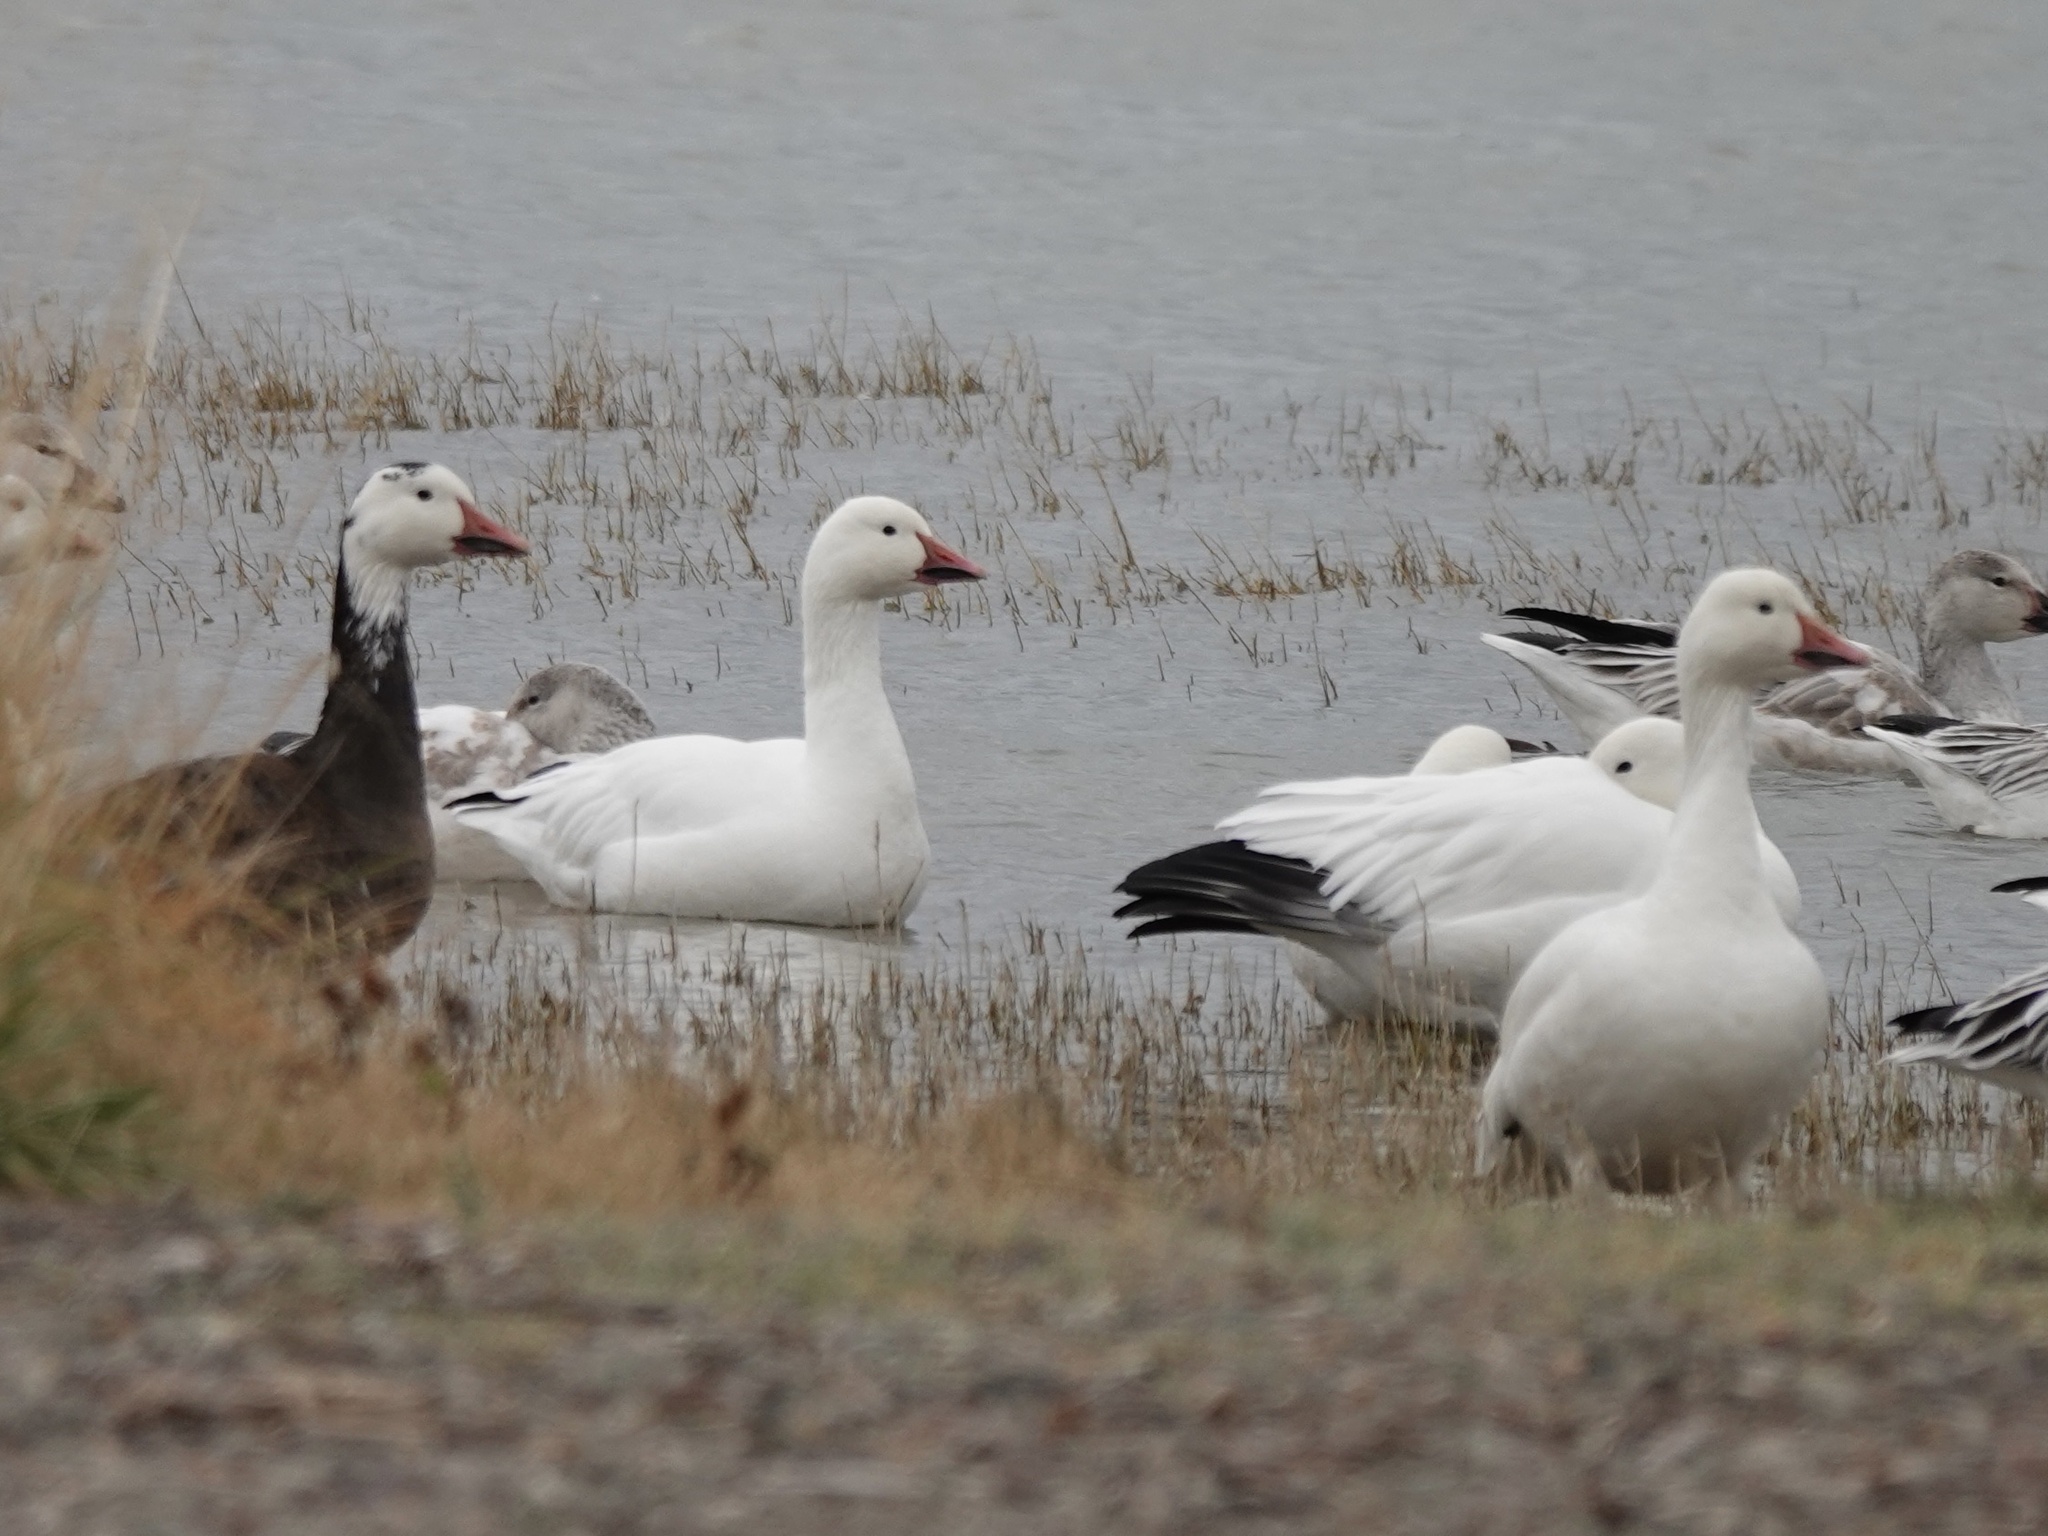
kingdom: Animalia
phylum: Chordata
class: Aves
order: Anseriformes
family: Anatidae
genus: Anser
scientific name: Anser caerulescens
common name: Snow goose
